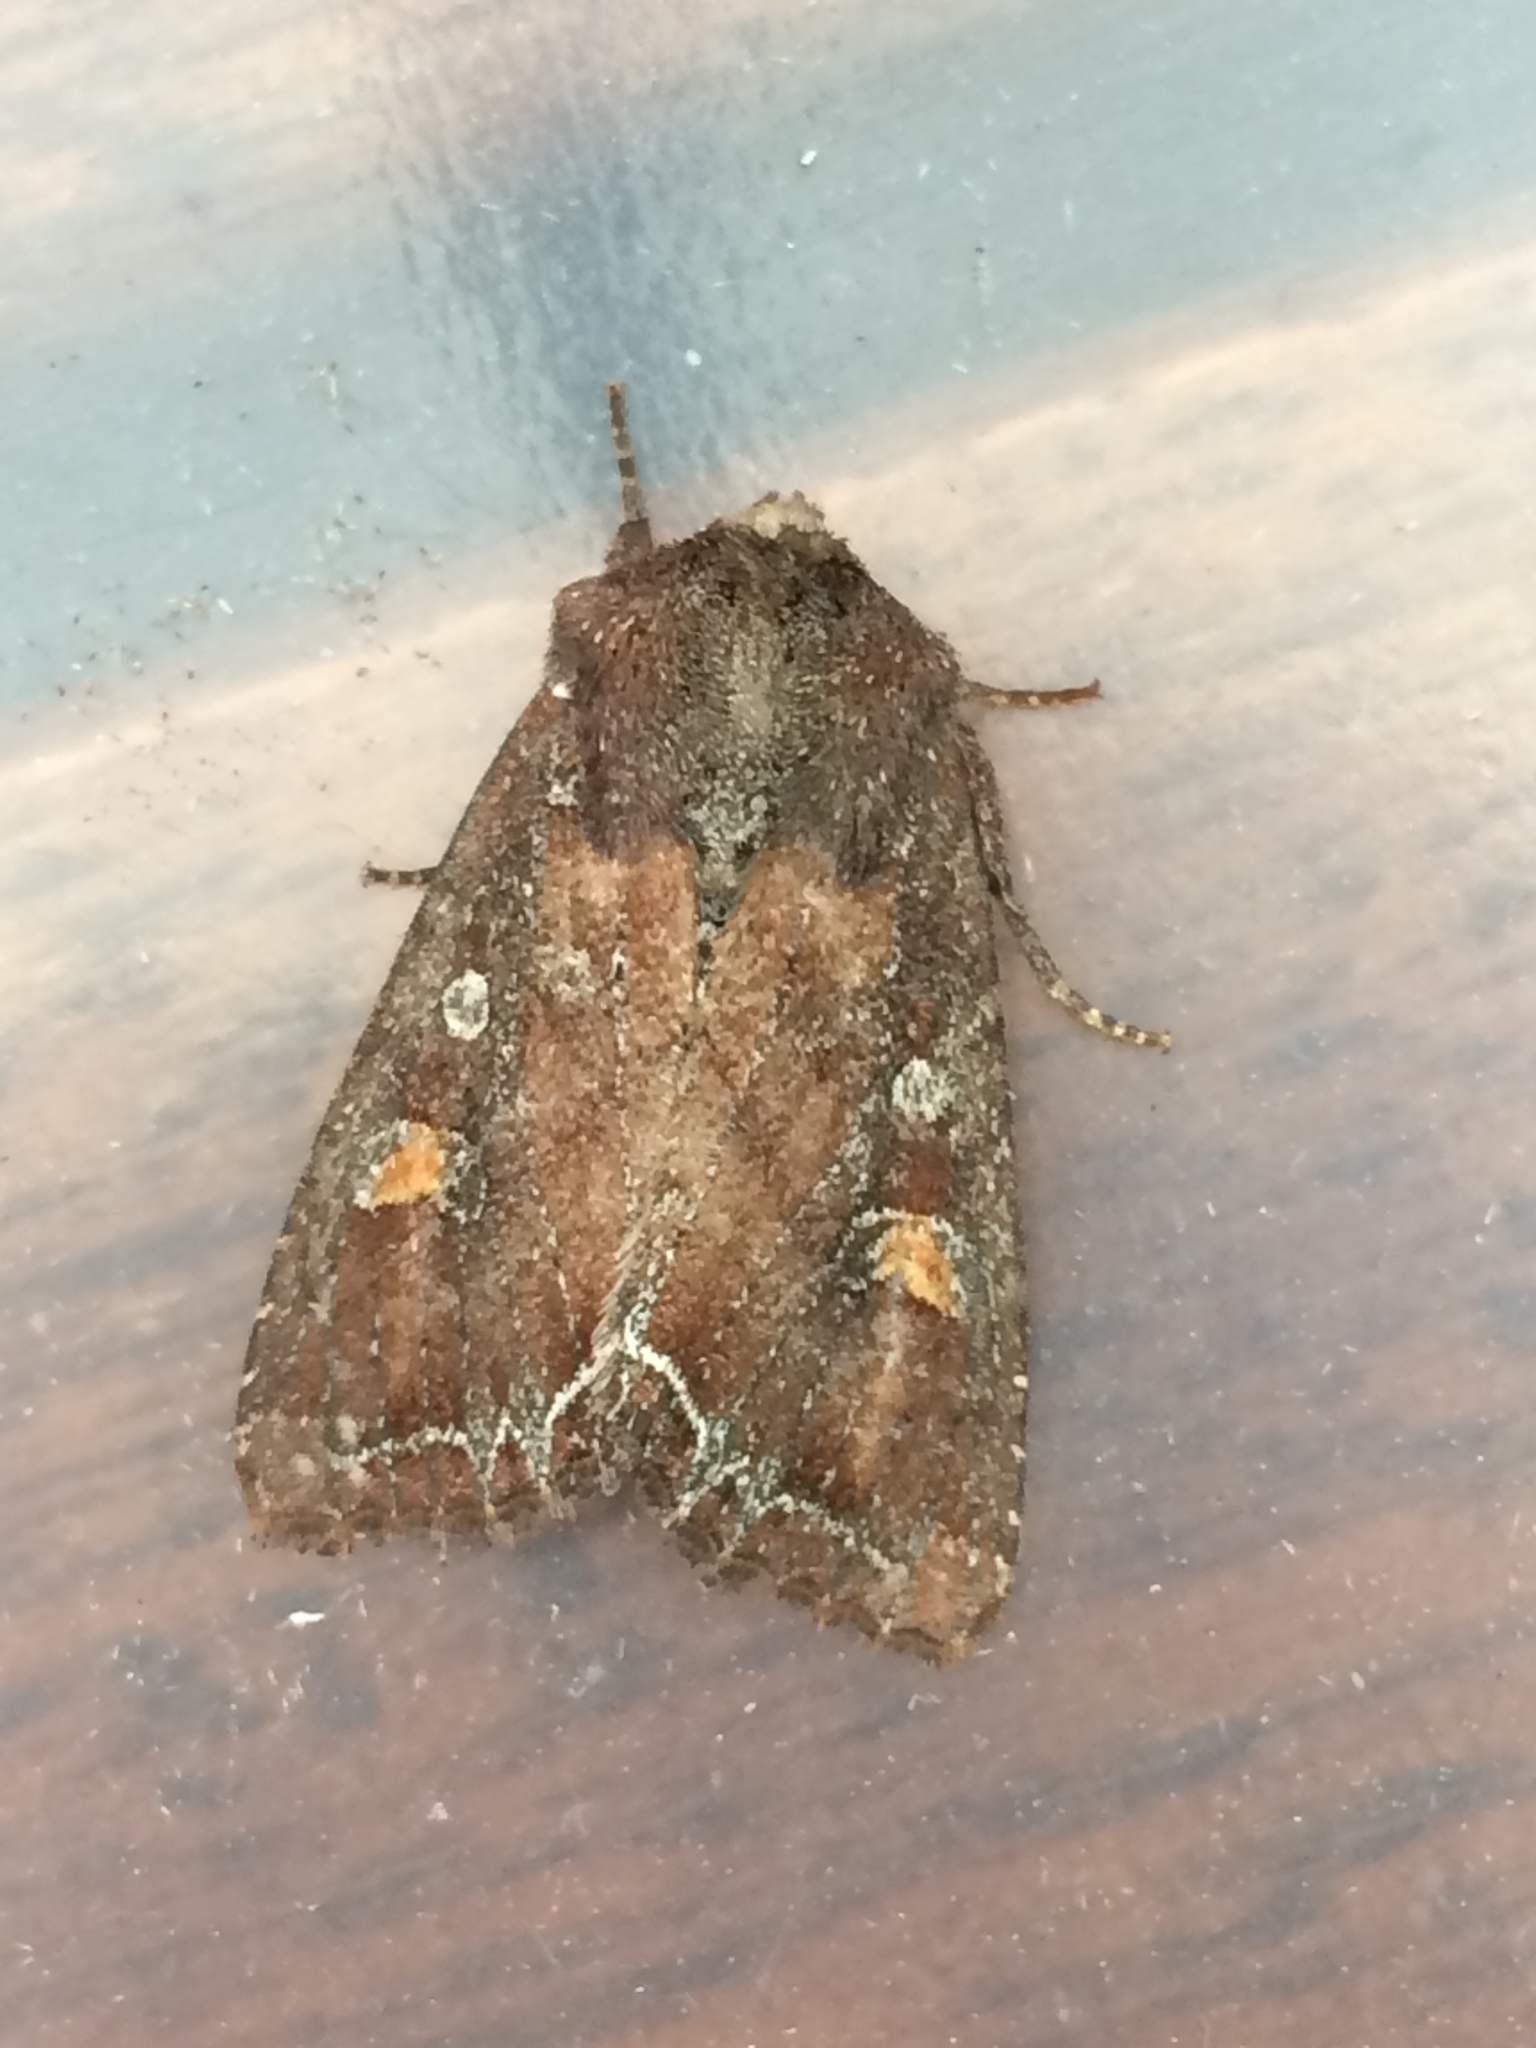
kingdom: Animalia
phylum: Arthropoda
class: Insecta
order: Lepidoptera
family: Noctuidae
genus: Lacanobia
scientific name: Lacanobia oleracea
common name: Bright-line brown-eye
